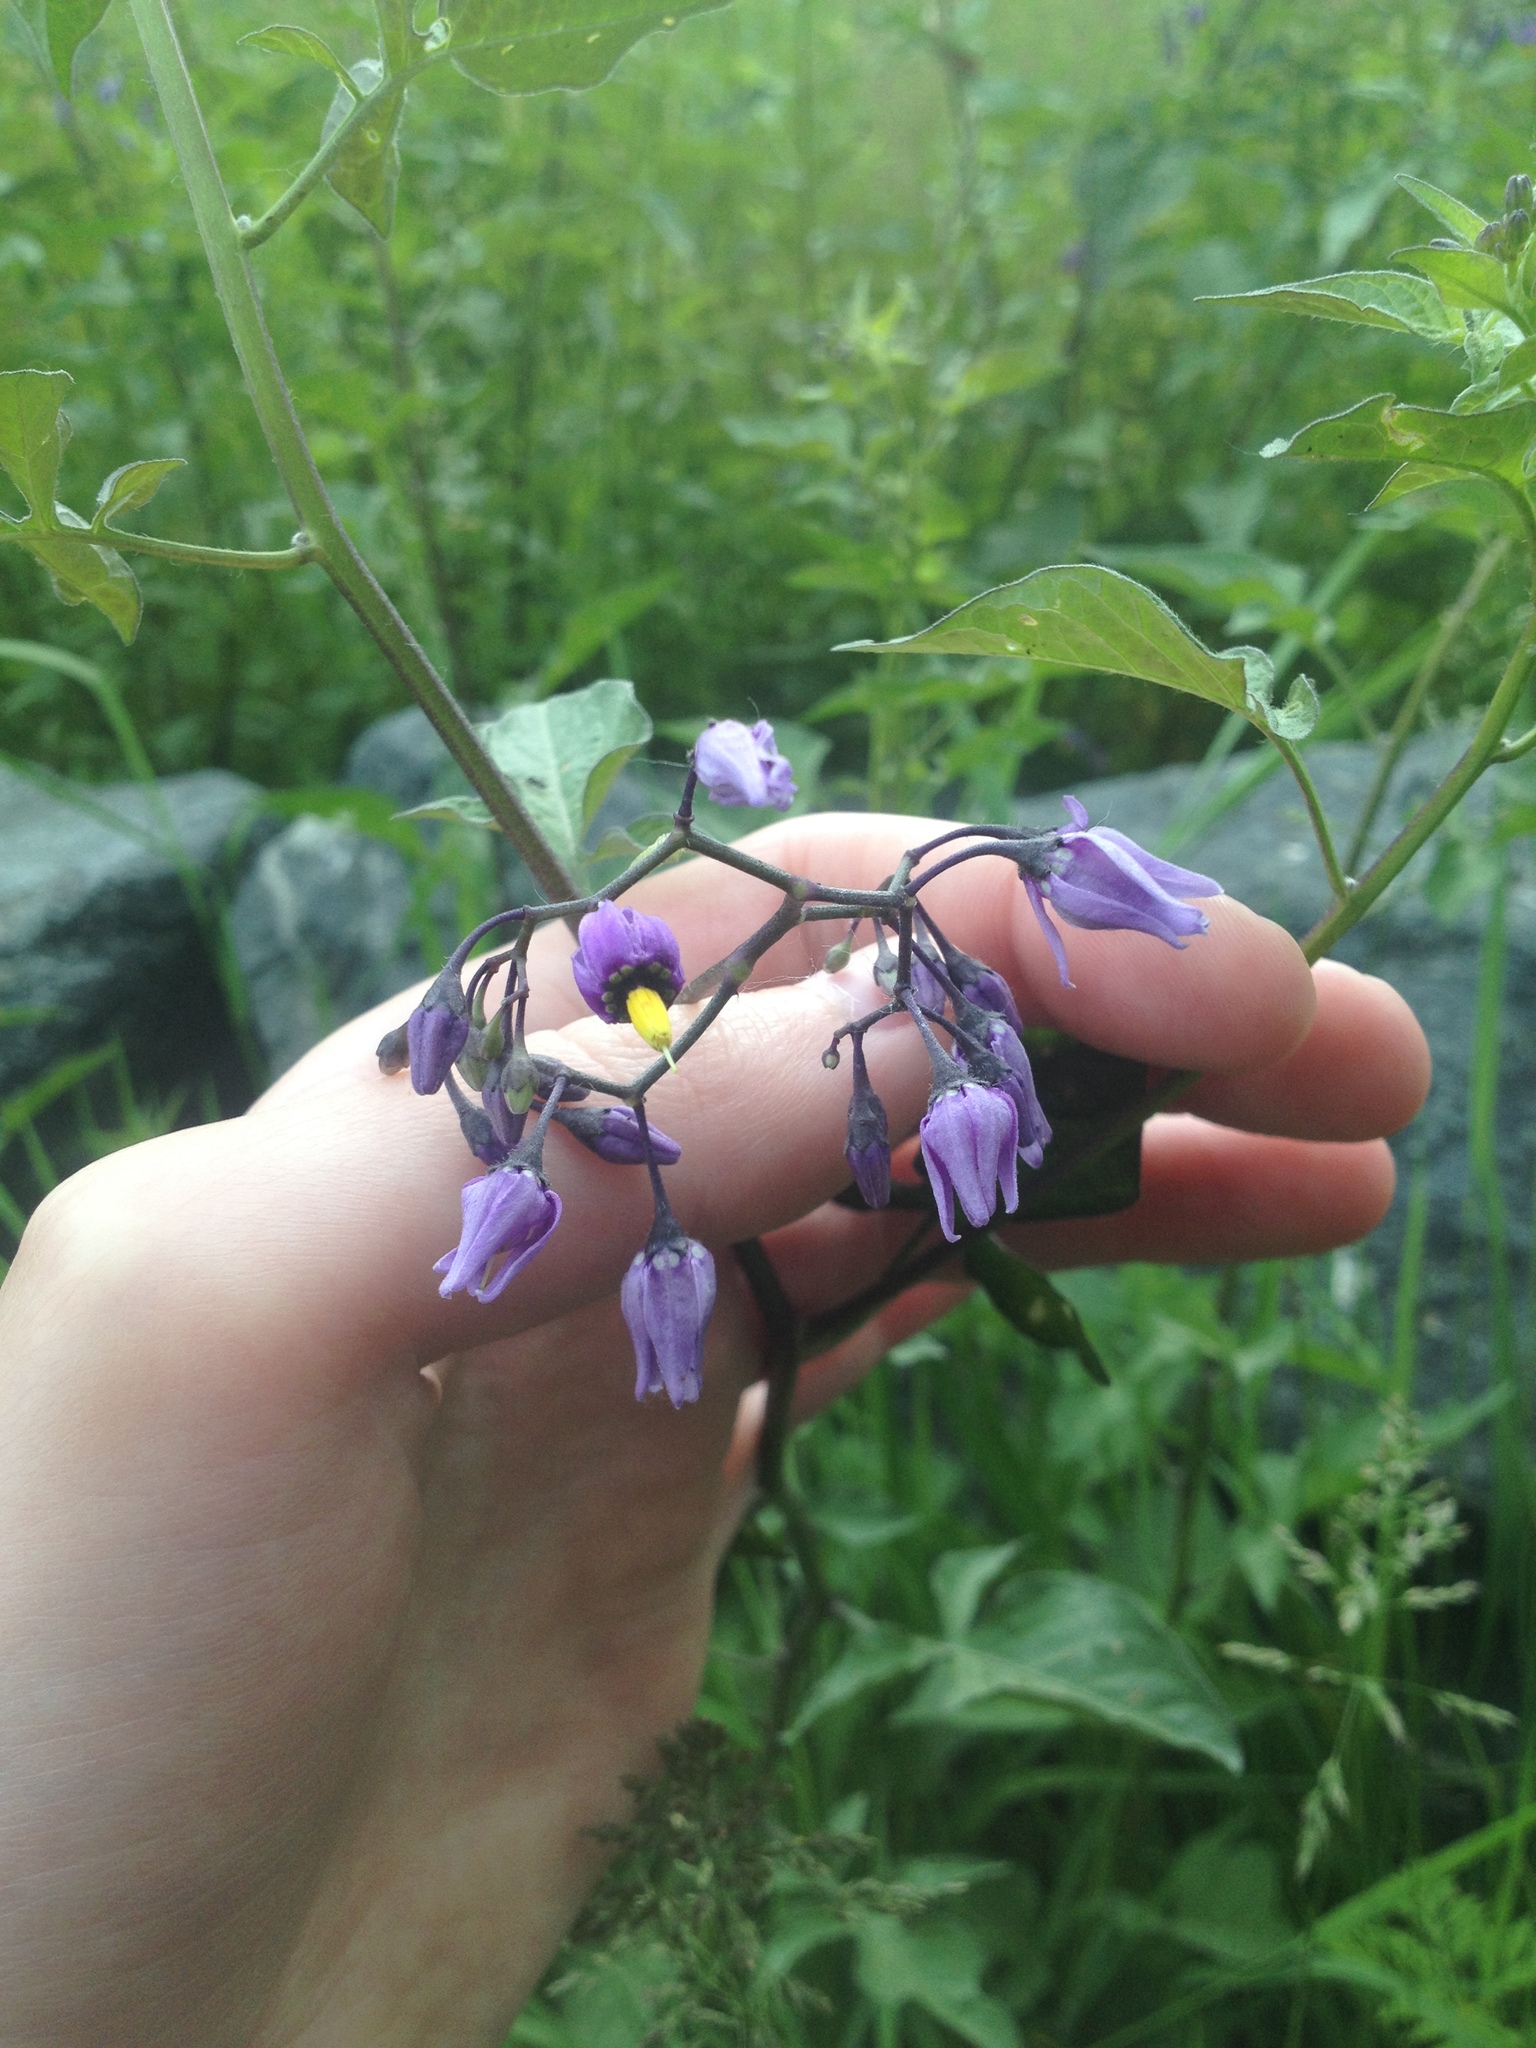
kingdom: Plantae
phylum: Tracheophyta
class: Magnoliopsida
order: Solanales
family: Solanaceae
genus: Solanum
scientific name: Solanum dulcamara
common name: Climbing nightshade
